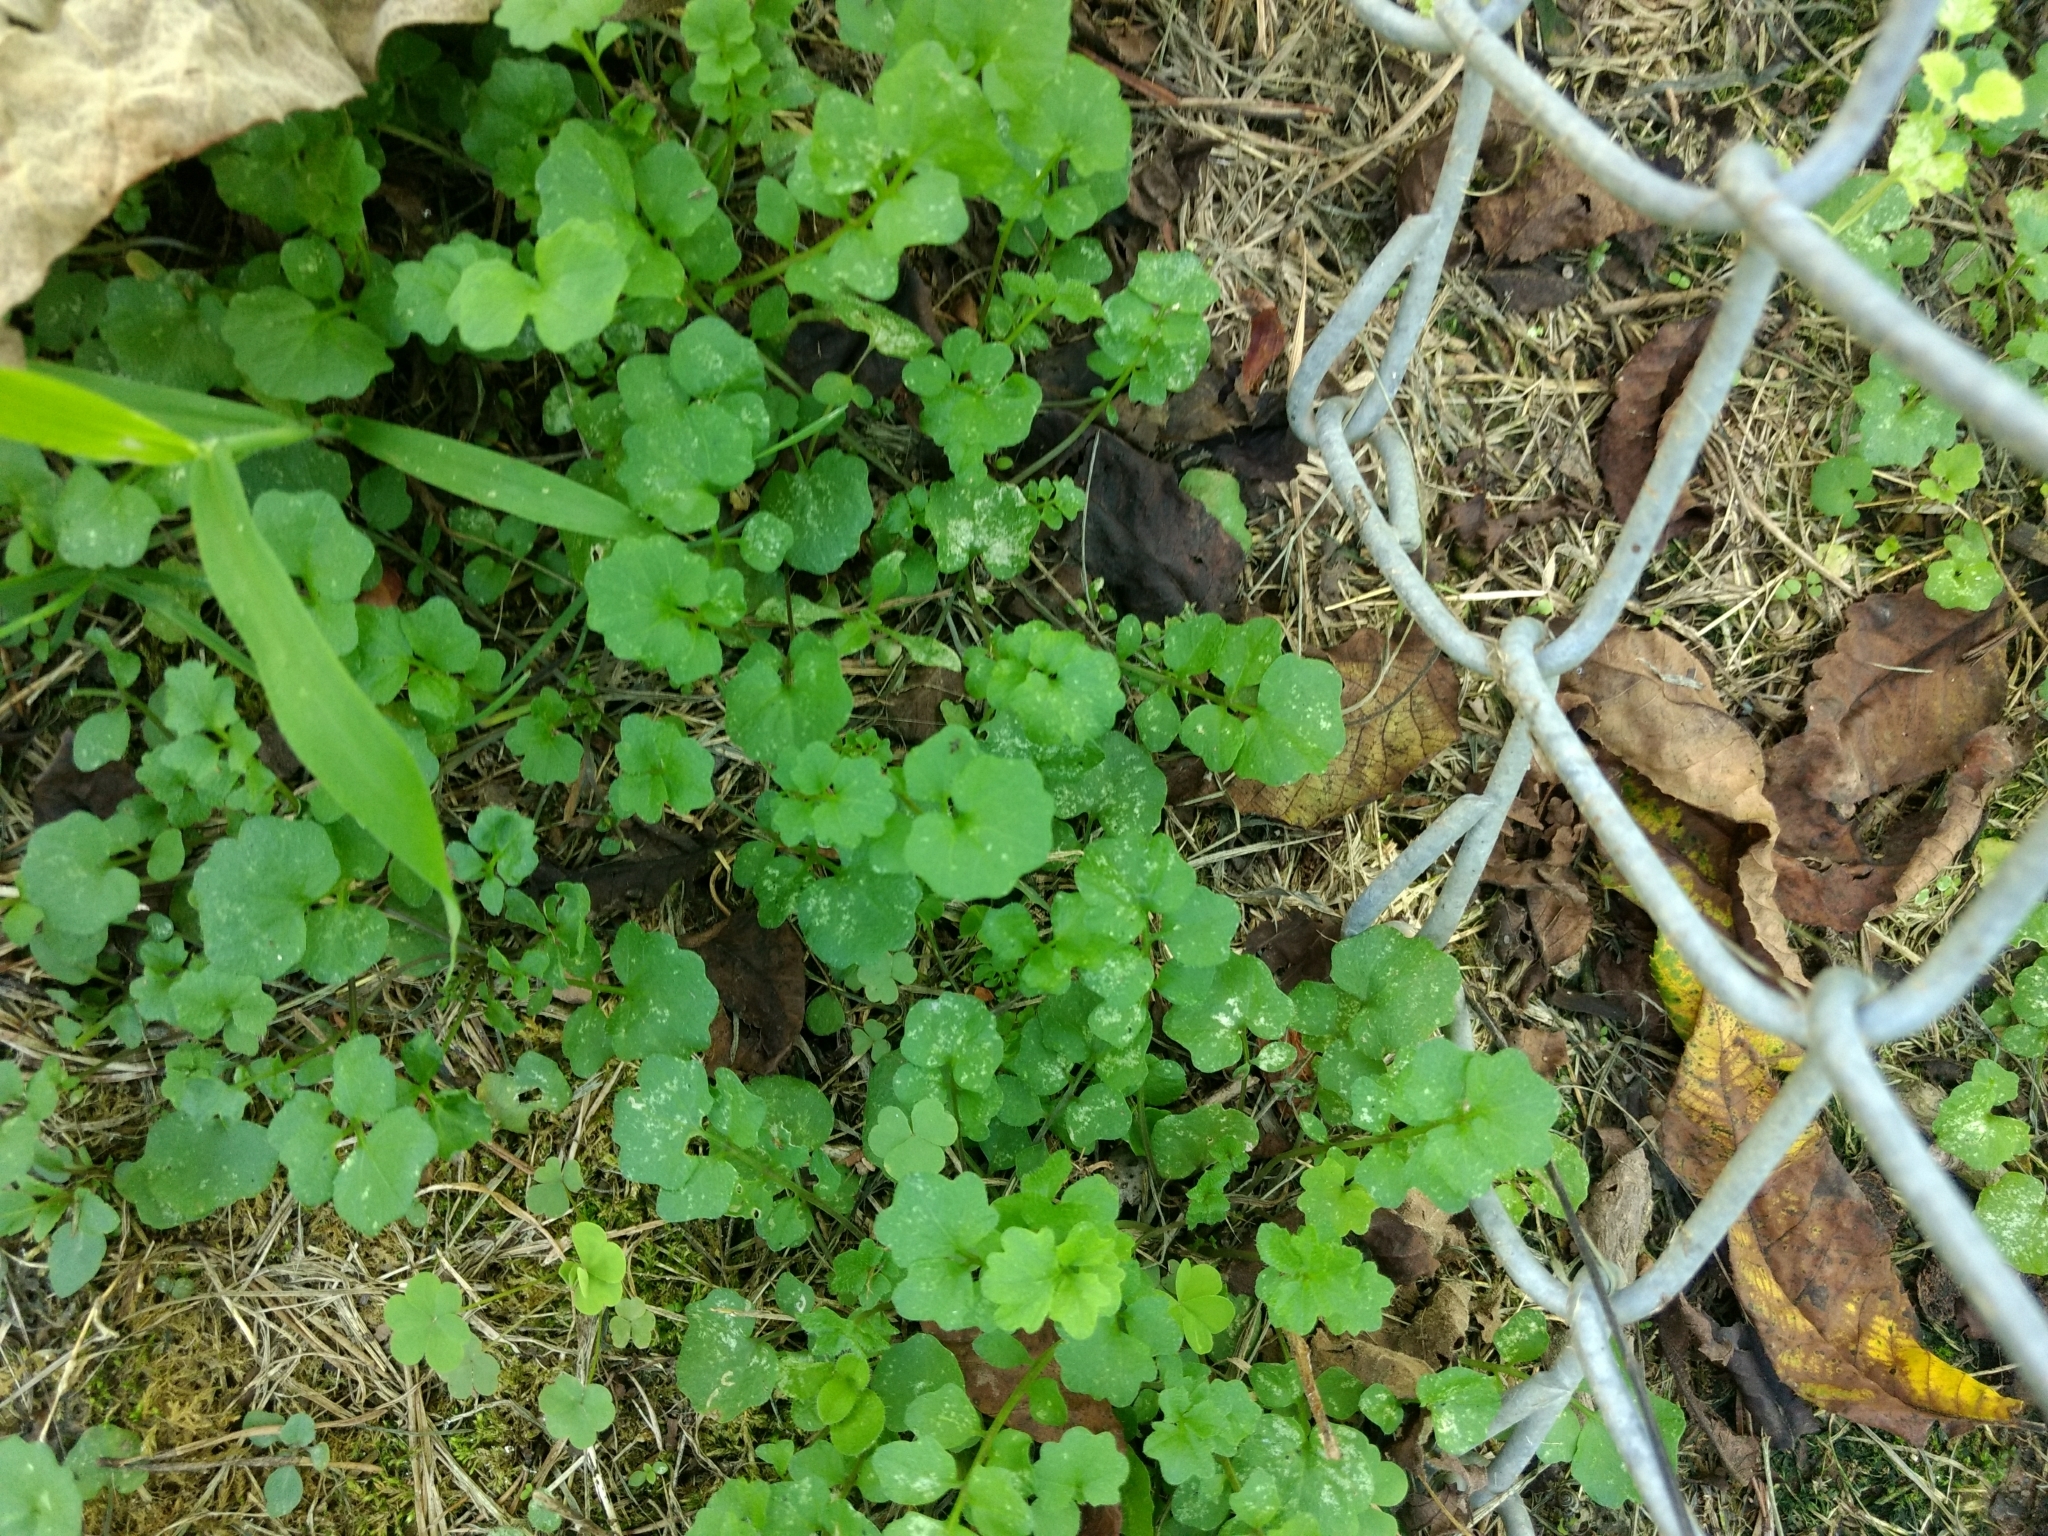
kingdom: Plantae
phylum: Tracheophyta
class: Magnoliopsida
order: Brassicales
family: Brassicaceae
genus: Cardamine
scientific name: Cardamine hirsuta
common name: Hairy bittercress
